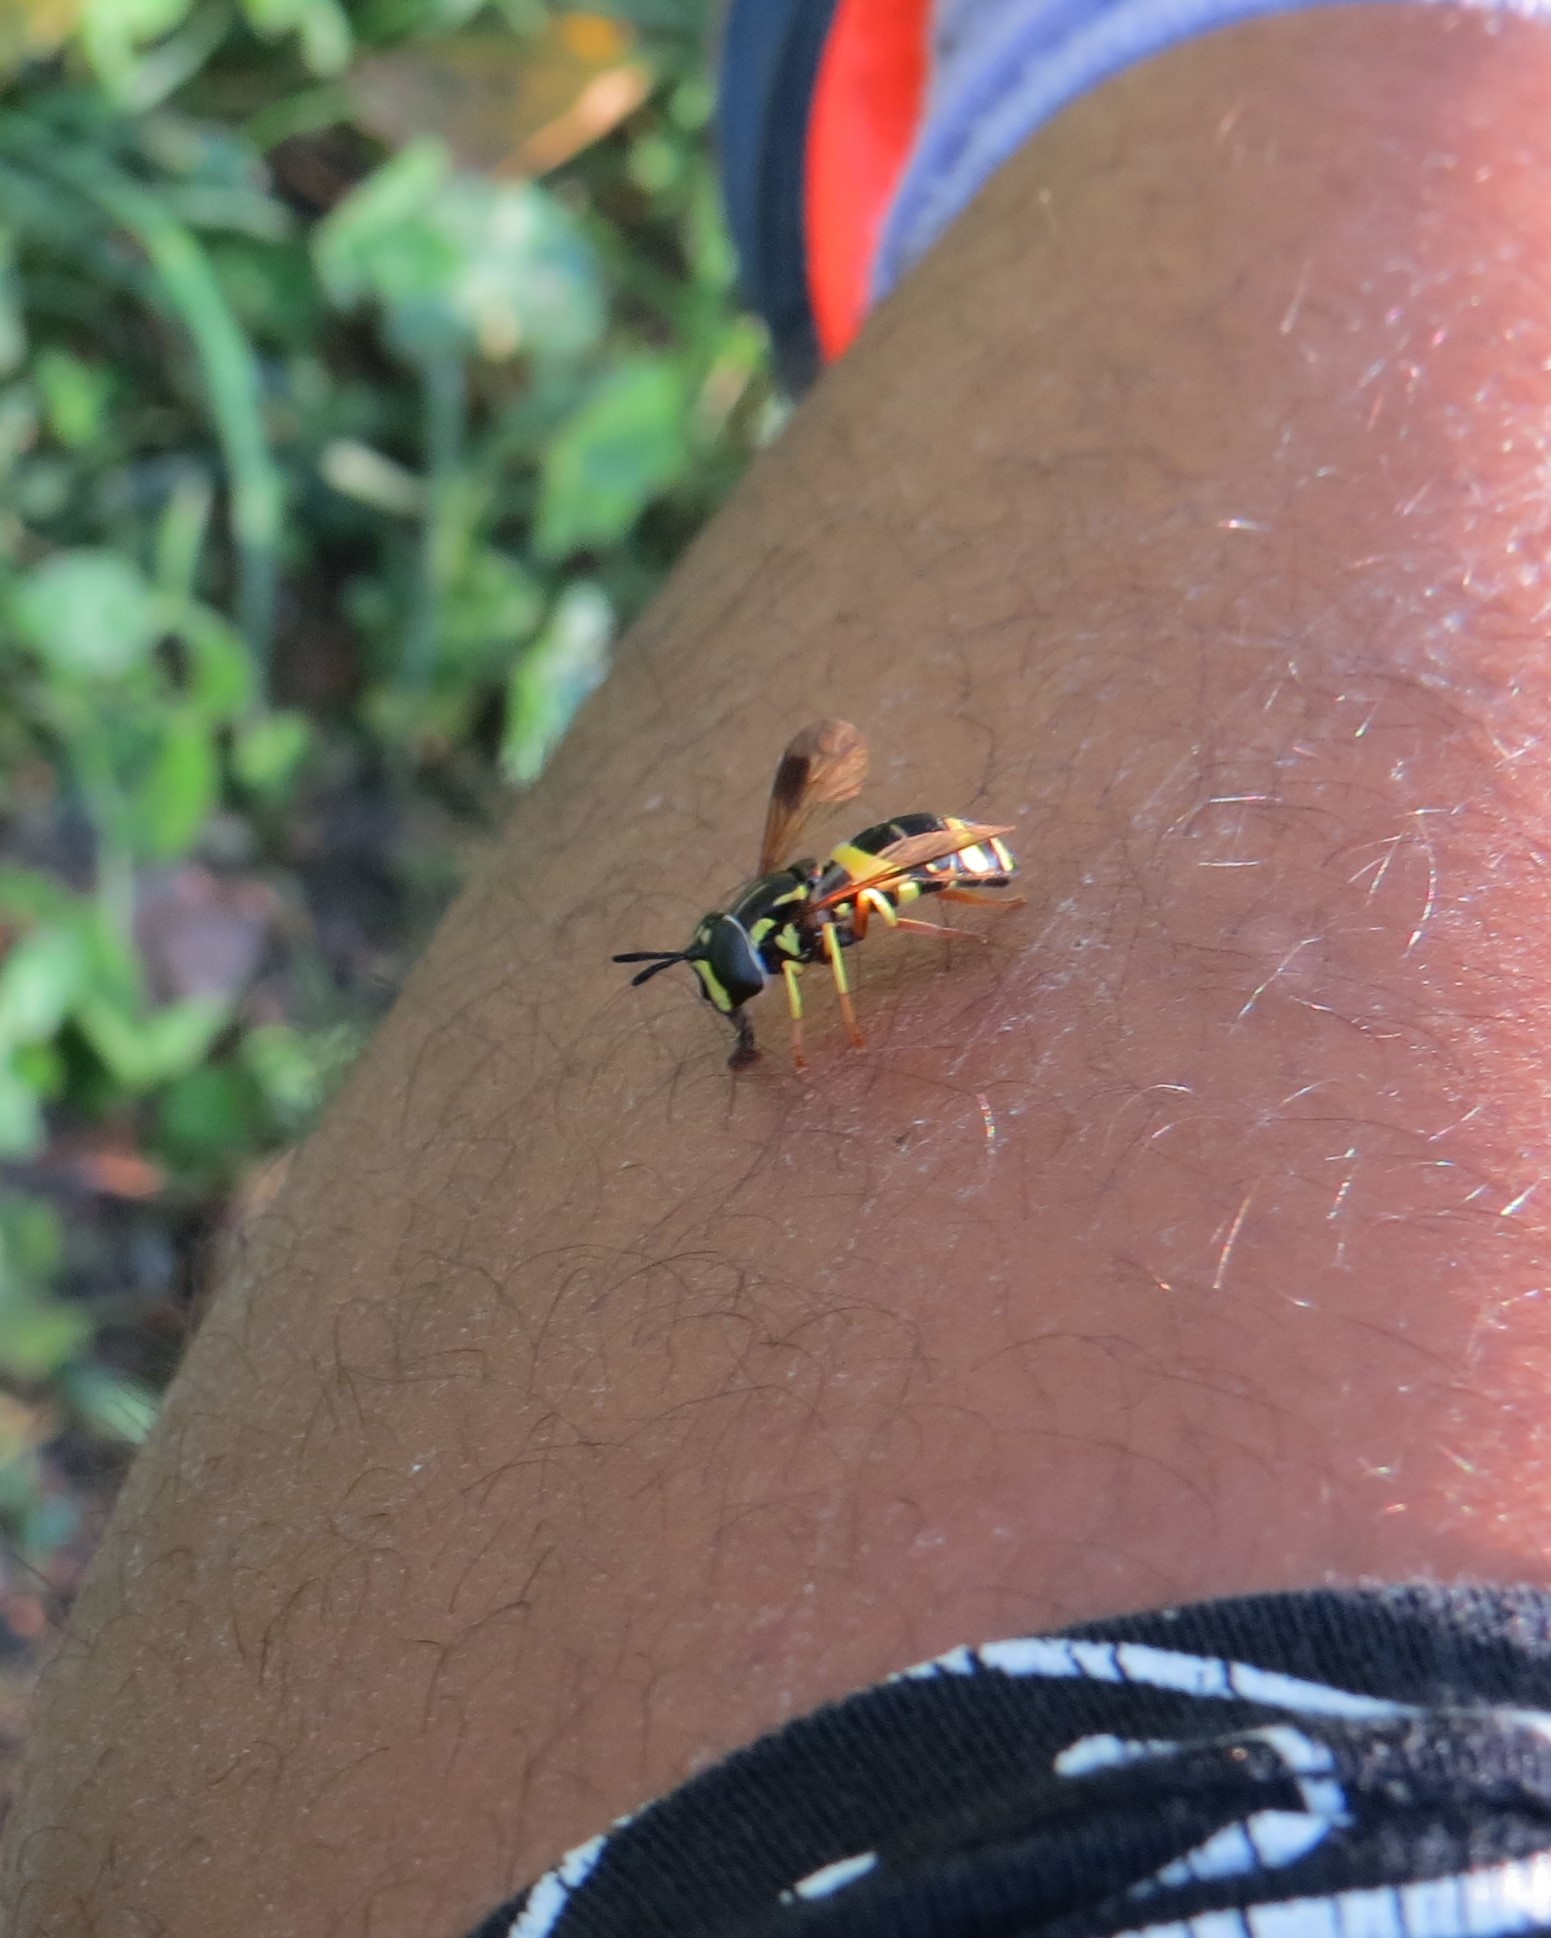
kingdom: Animalia
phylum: Arthropoda
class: Insecta
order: Diptera
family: Syrphidae
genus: Chrysotoxum
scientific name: Chrysotoxum bicincta
